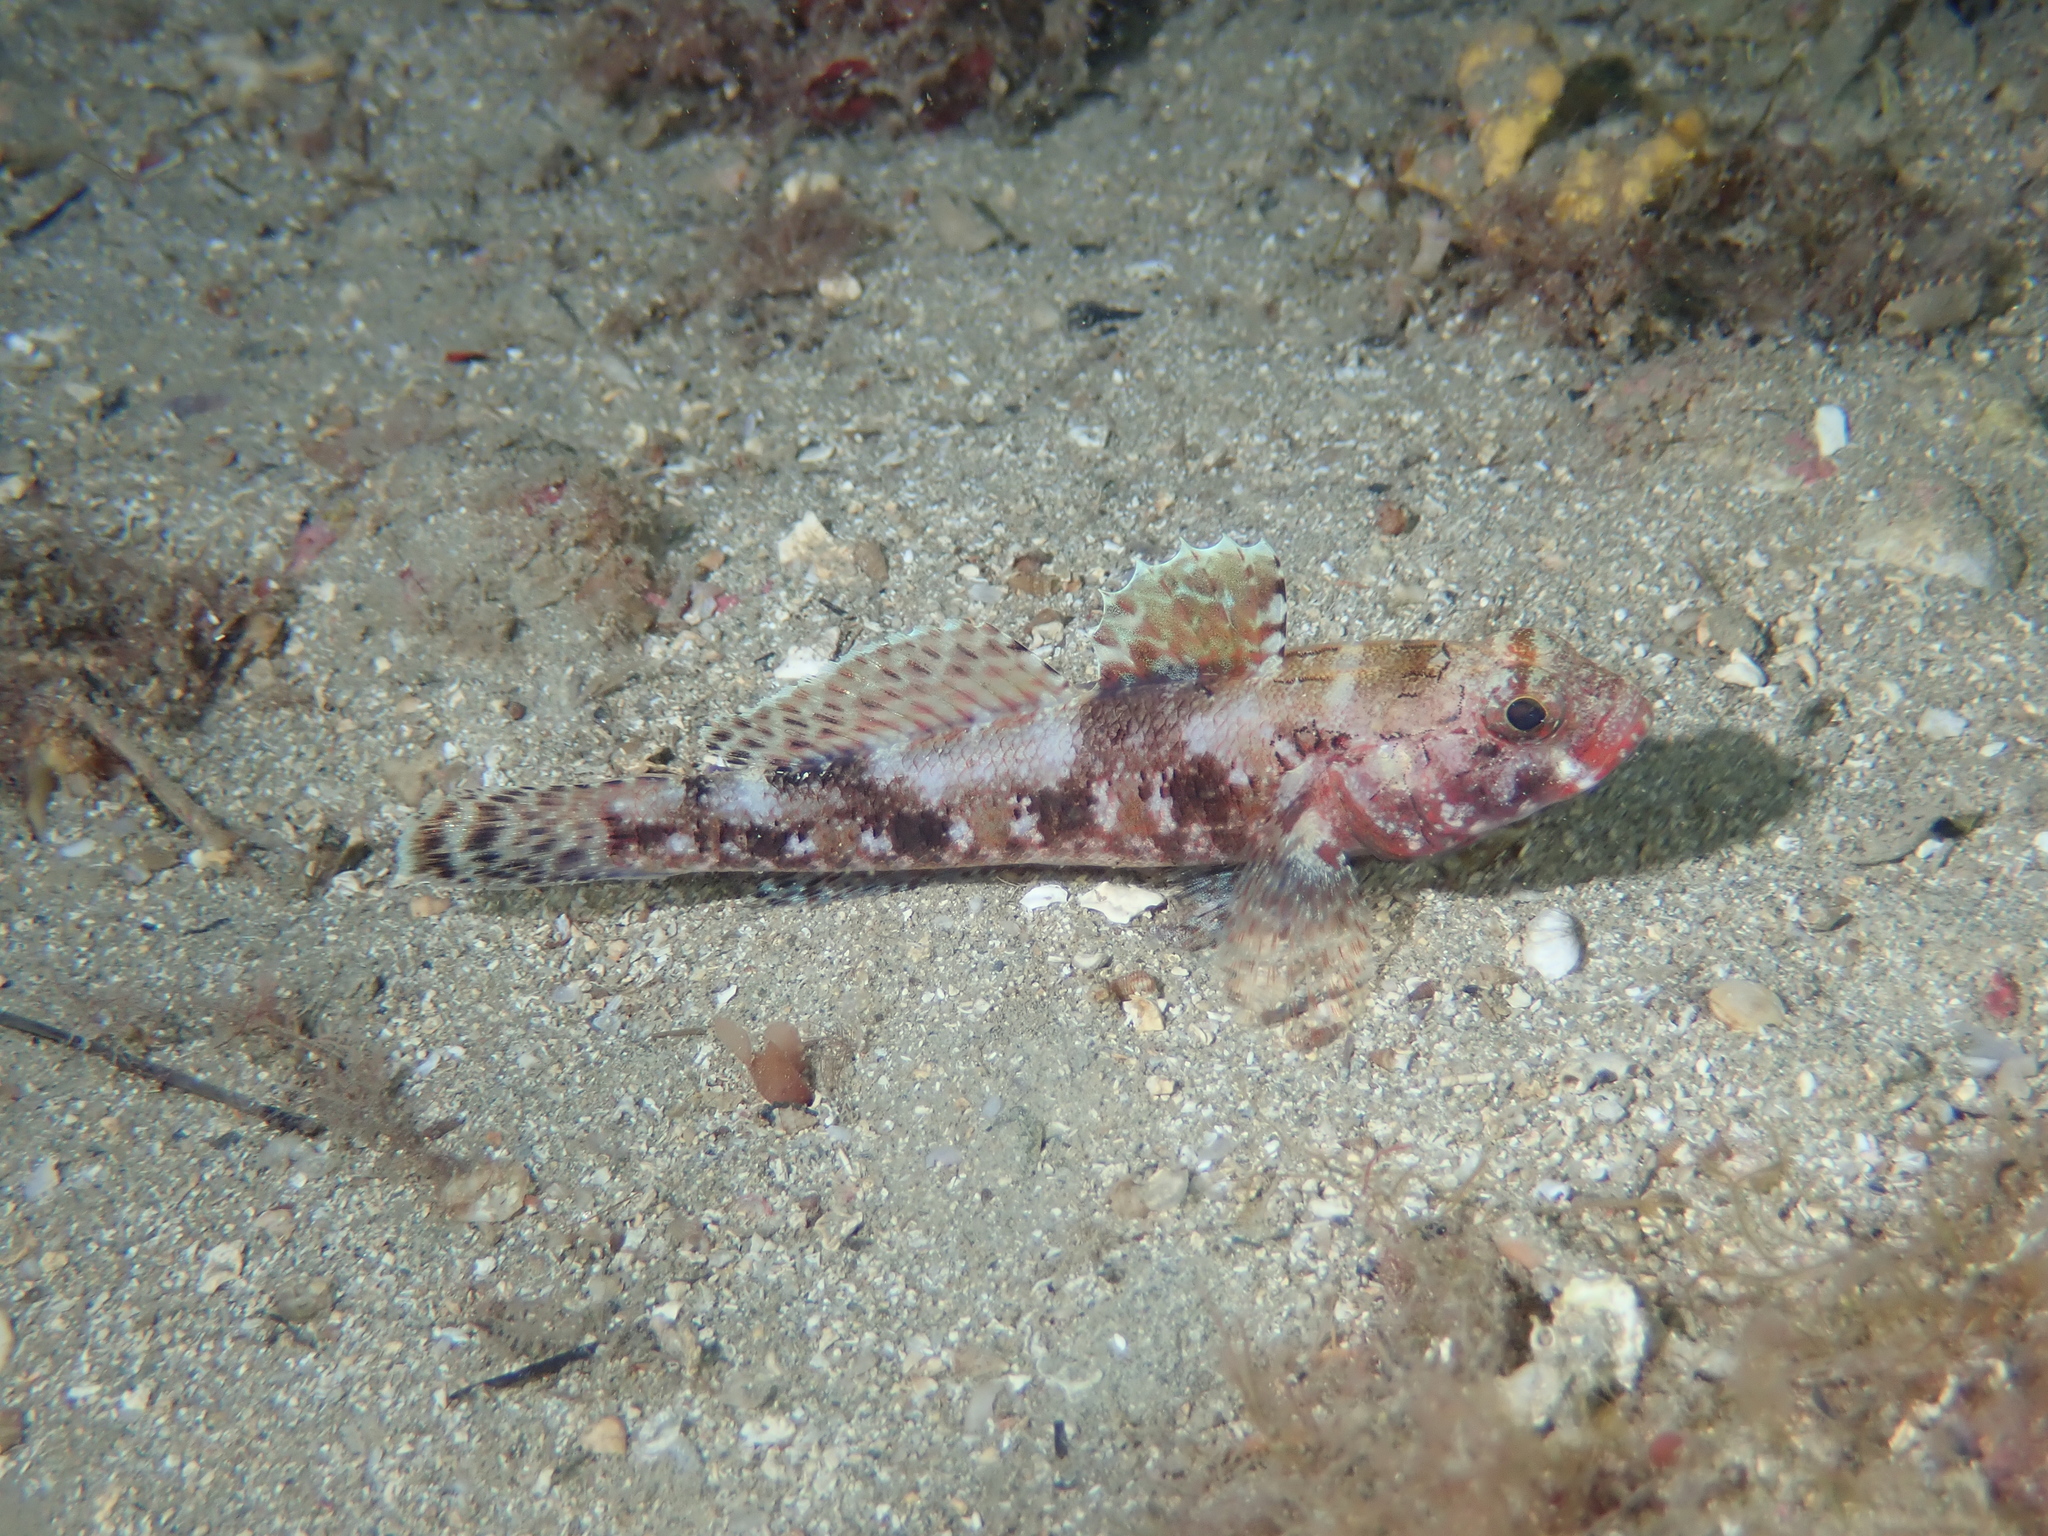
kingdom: Animalia
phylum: Chordata
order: Perciformes
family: Gobiidae
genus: Gobius
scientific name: Gobius cruentatus
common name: Red-mouthed goby
